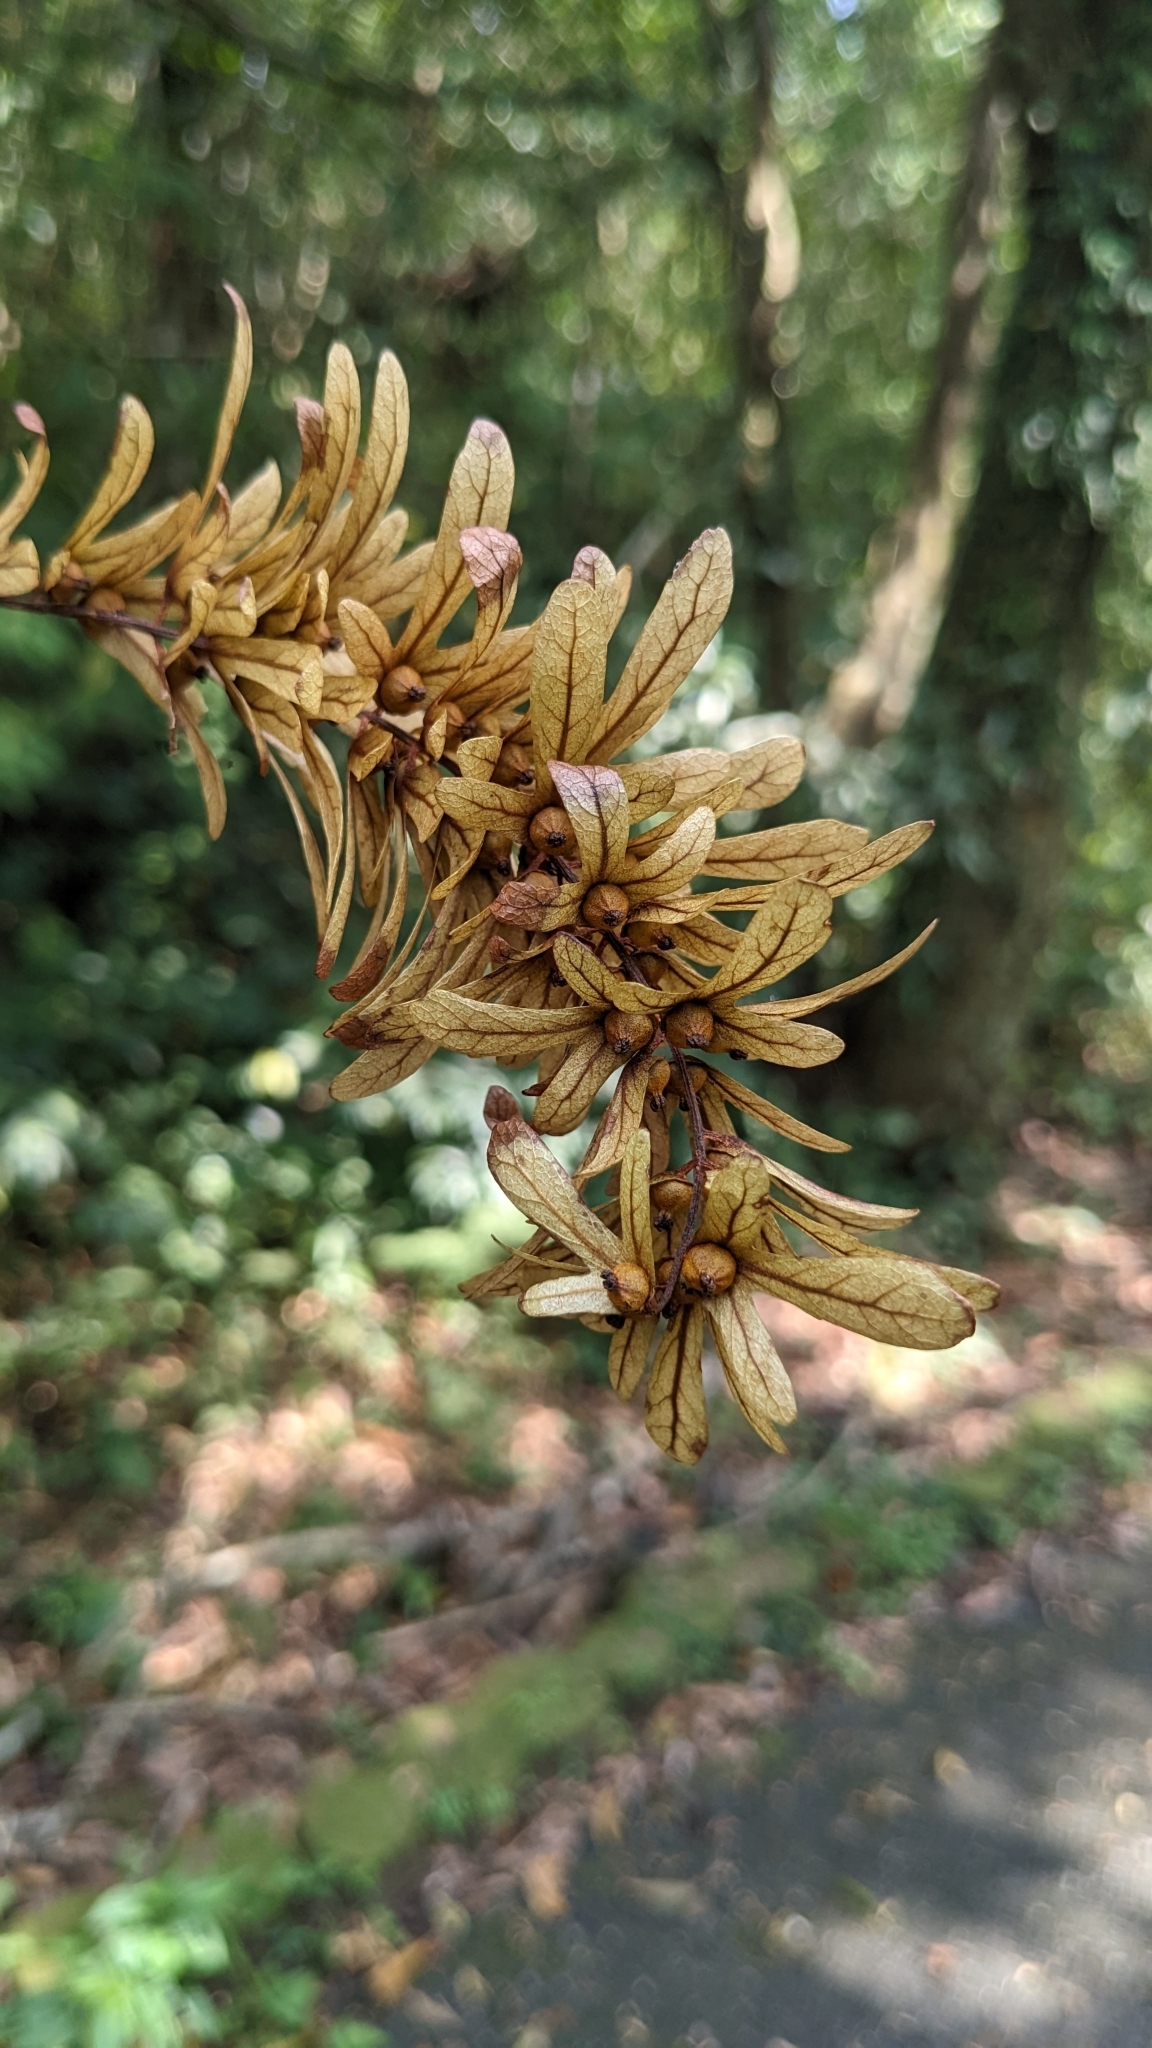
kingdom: Plantae
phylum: Tracheophyta
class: Magnoliopsida
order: Fagales
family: Juglandaceae
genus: Engelhardia
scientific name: Engelhardia roxburghiana
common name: Golden malay beam
